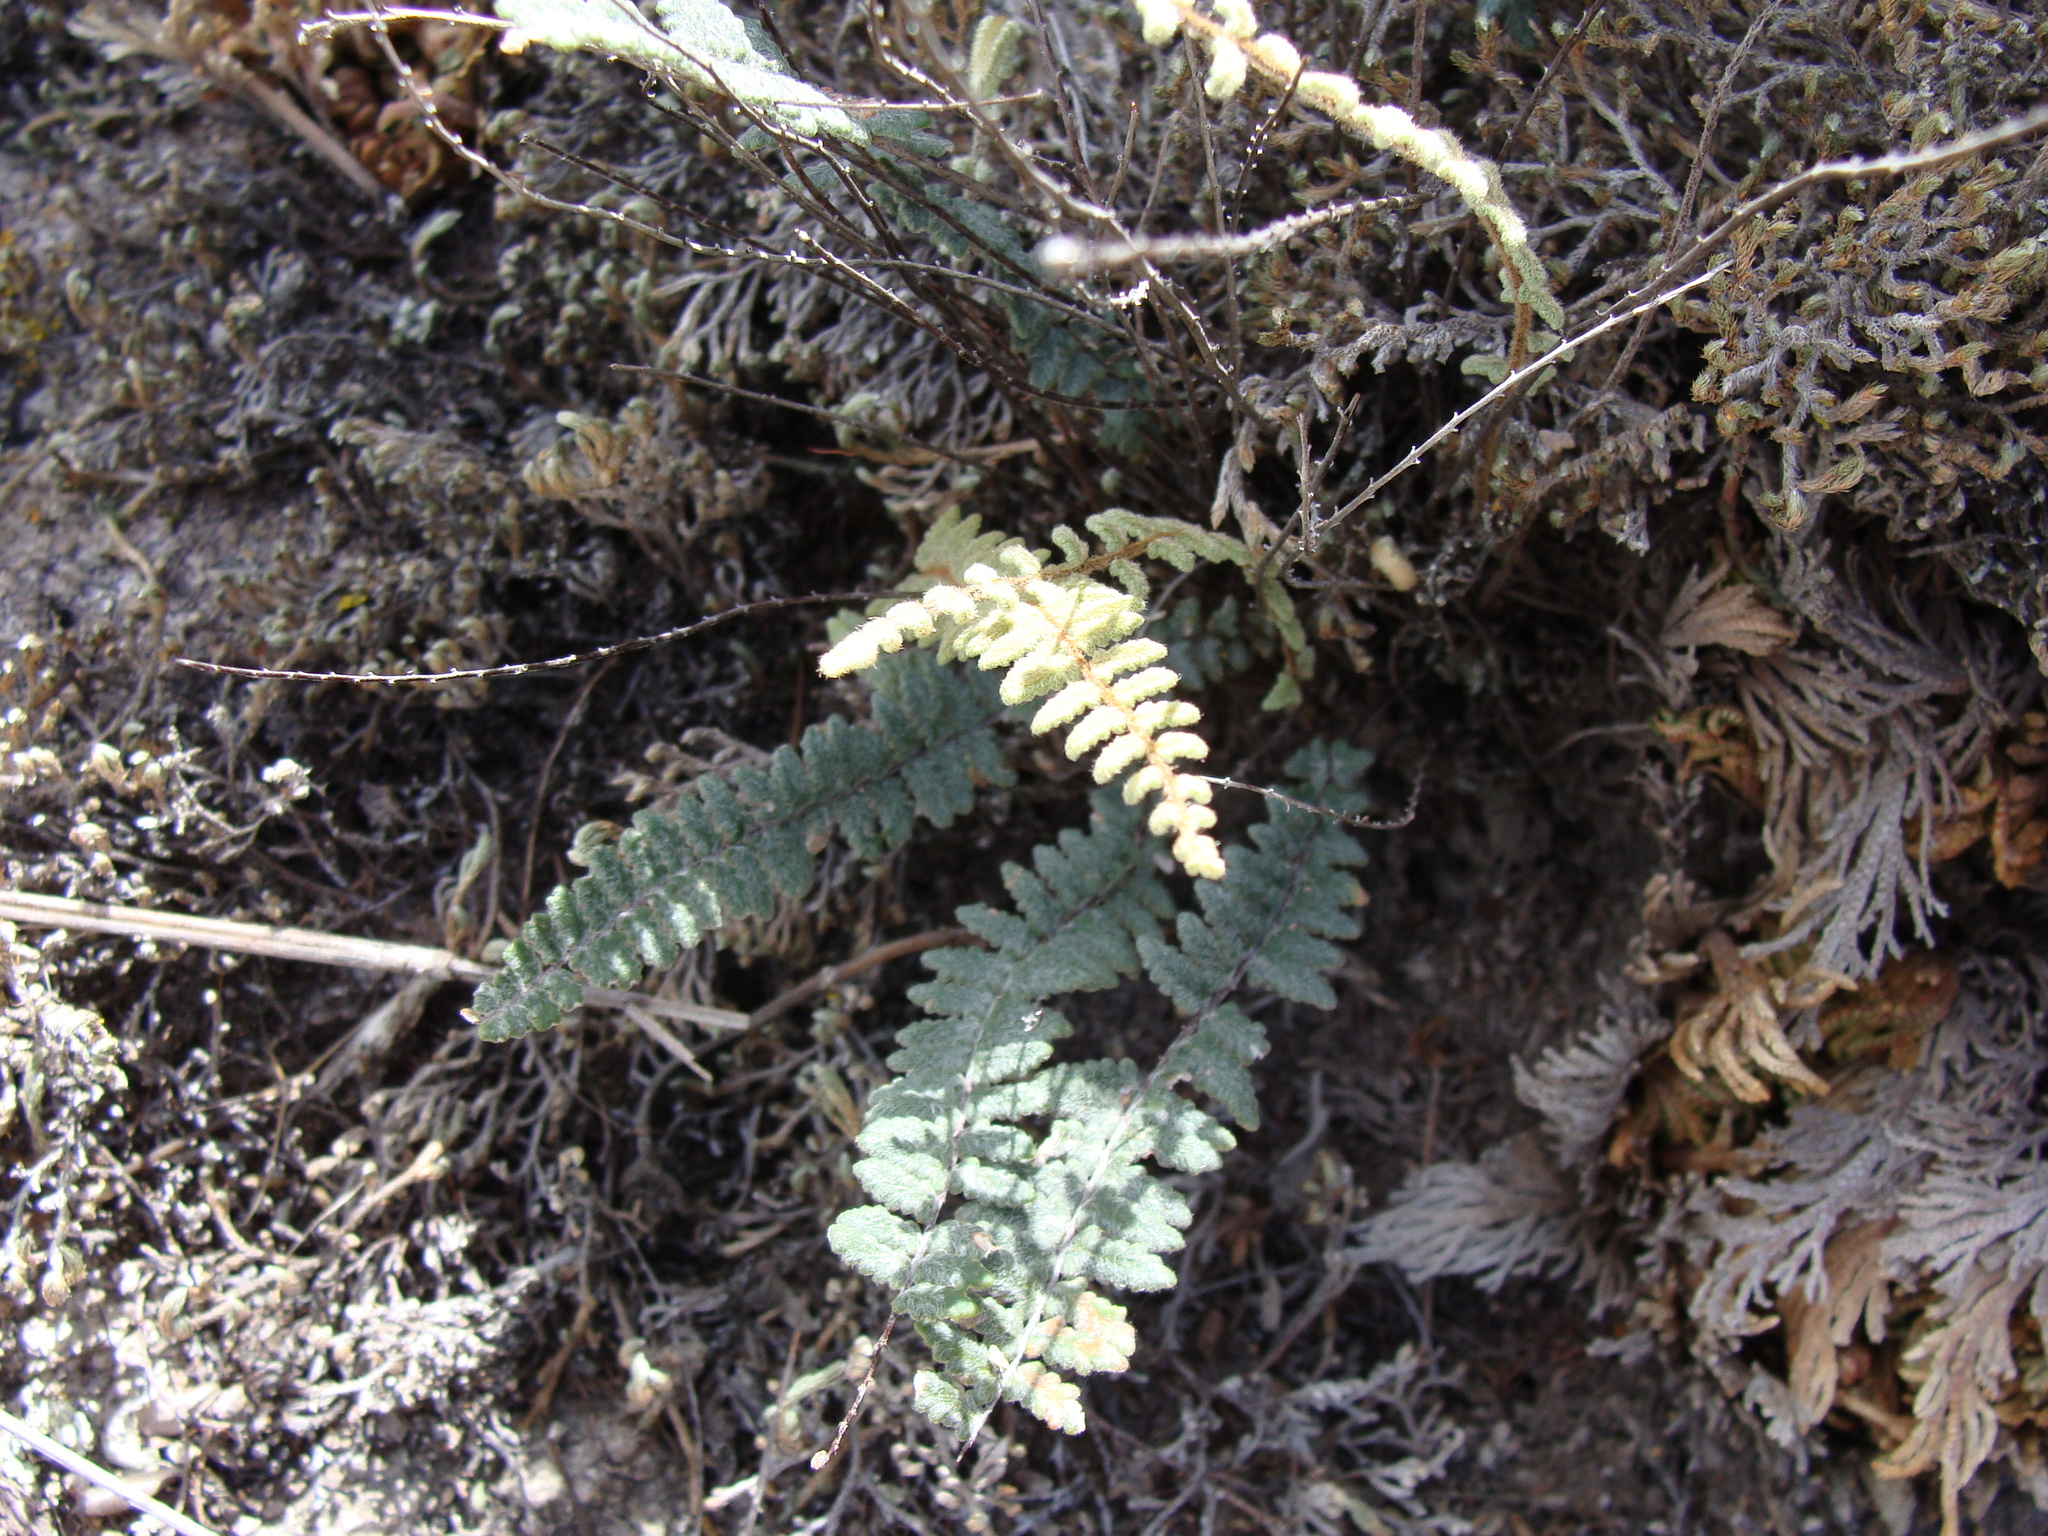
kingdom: Plantae
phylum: Tracheophyta
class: Polypodiopsida
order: Polypodiales
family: Pteridaceae
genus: Myriopteris
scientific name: Myriopteris aurea
